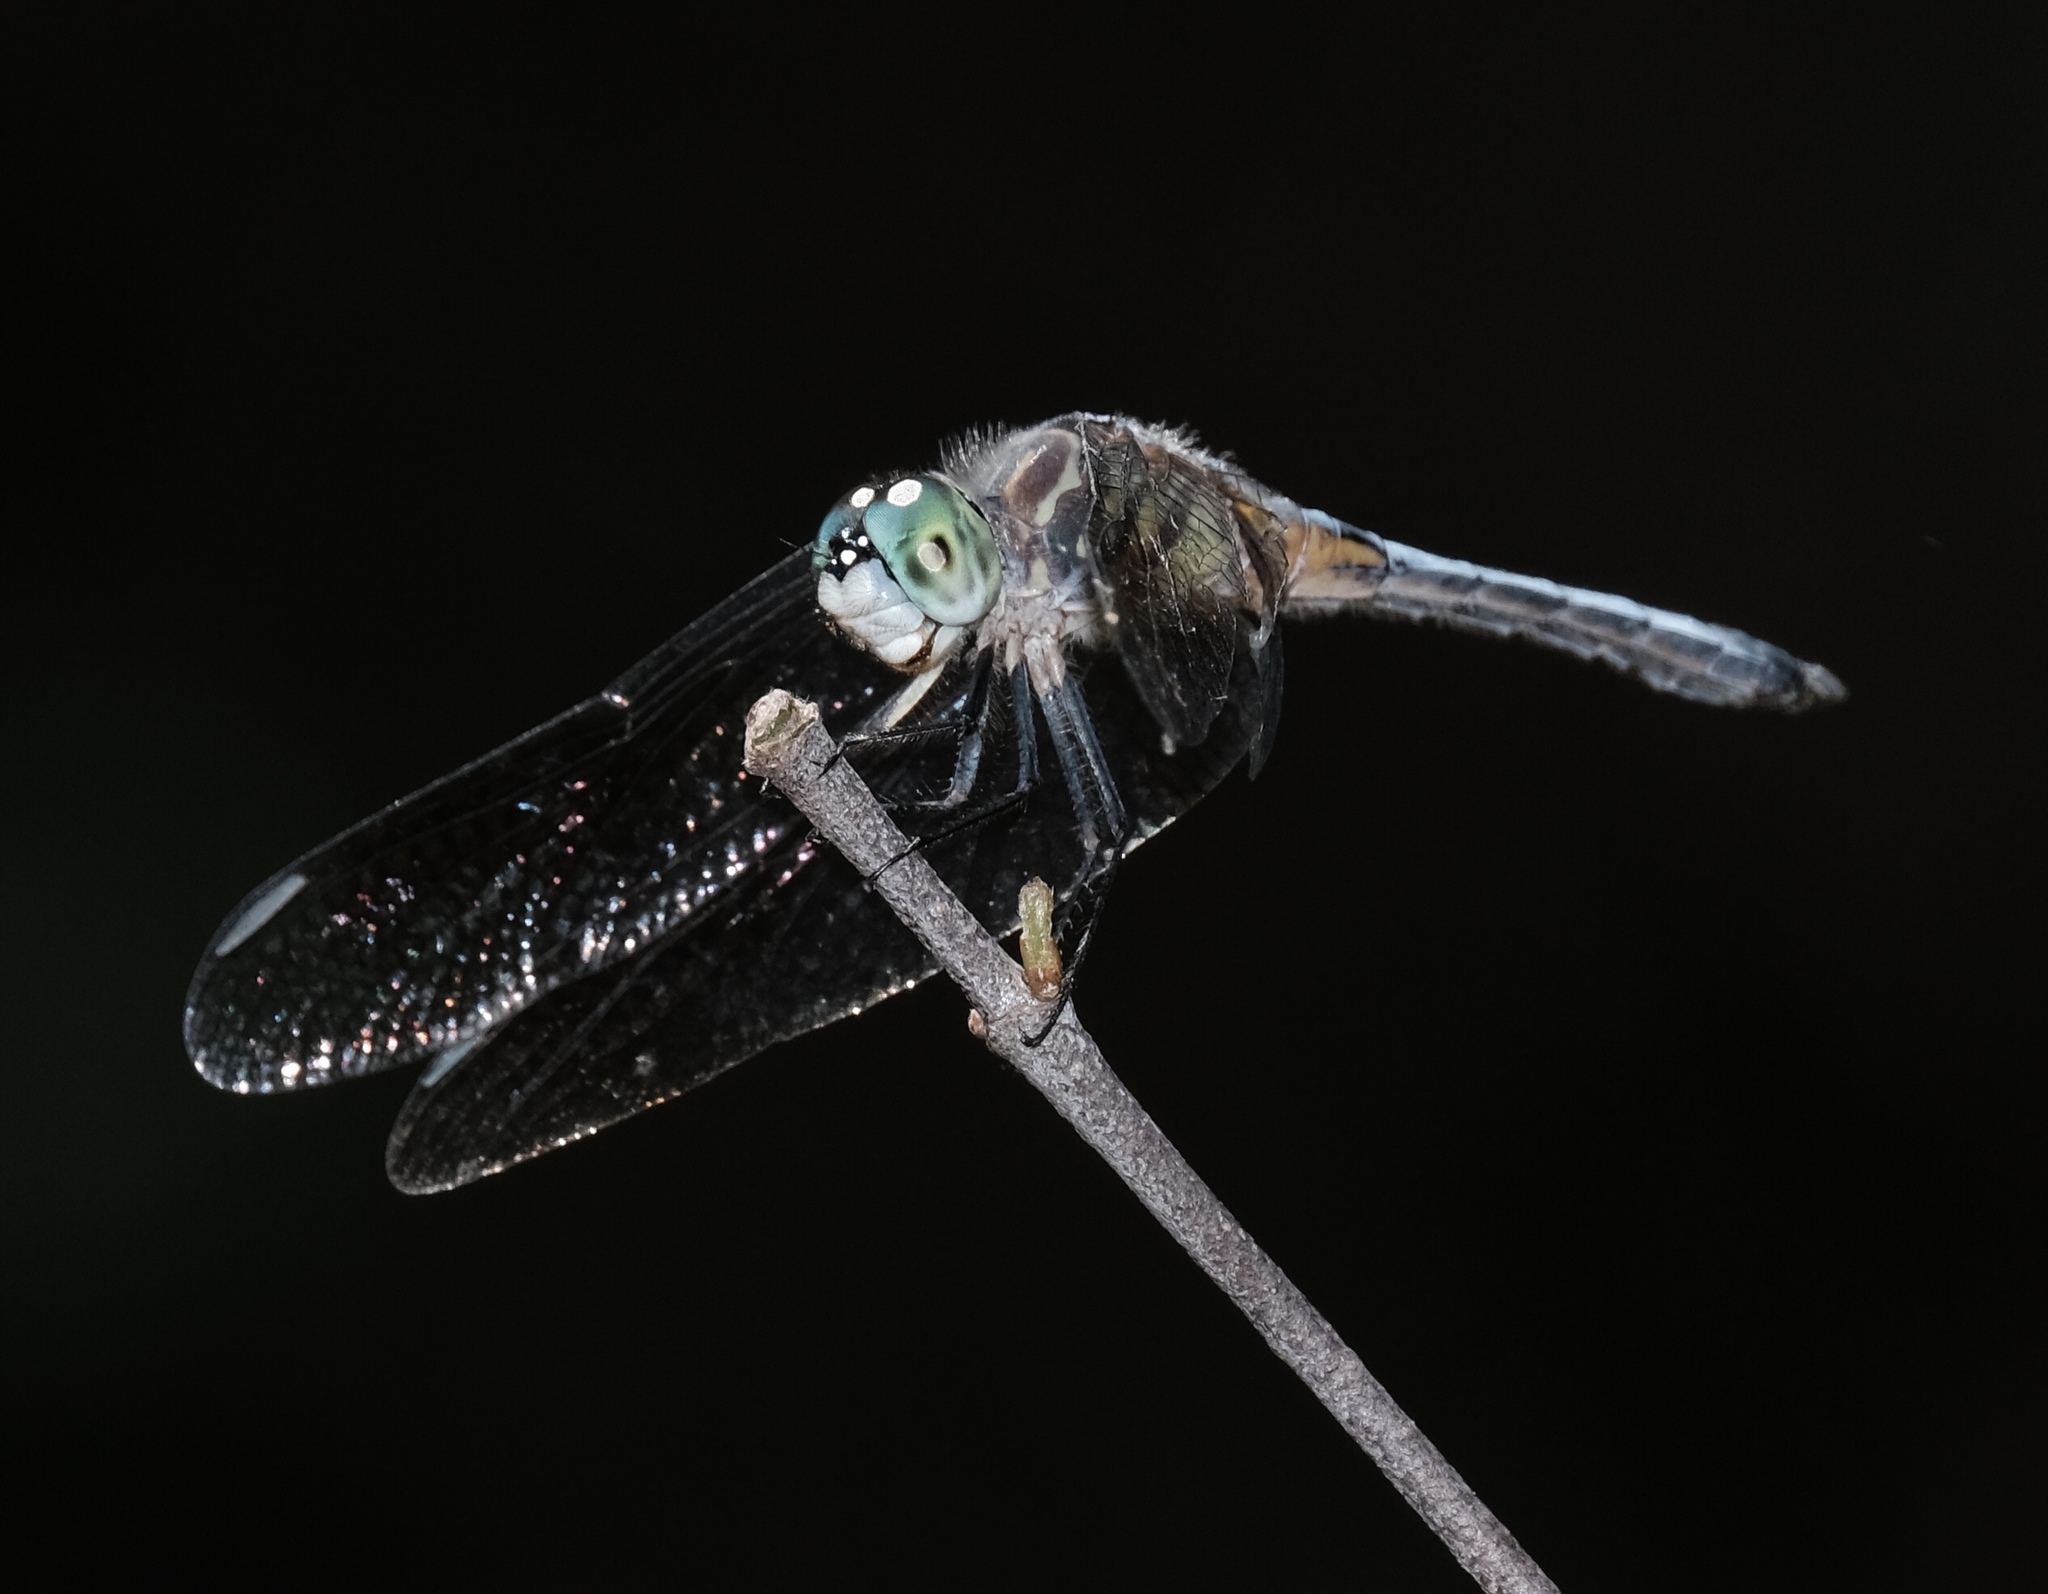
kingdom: Animalia
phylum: Arthropoda
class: Insecta
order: Odonata
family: Libellulidae
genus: Pachydiplax
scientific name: Pachydiplax longipennis
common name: Blue dasher
